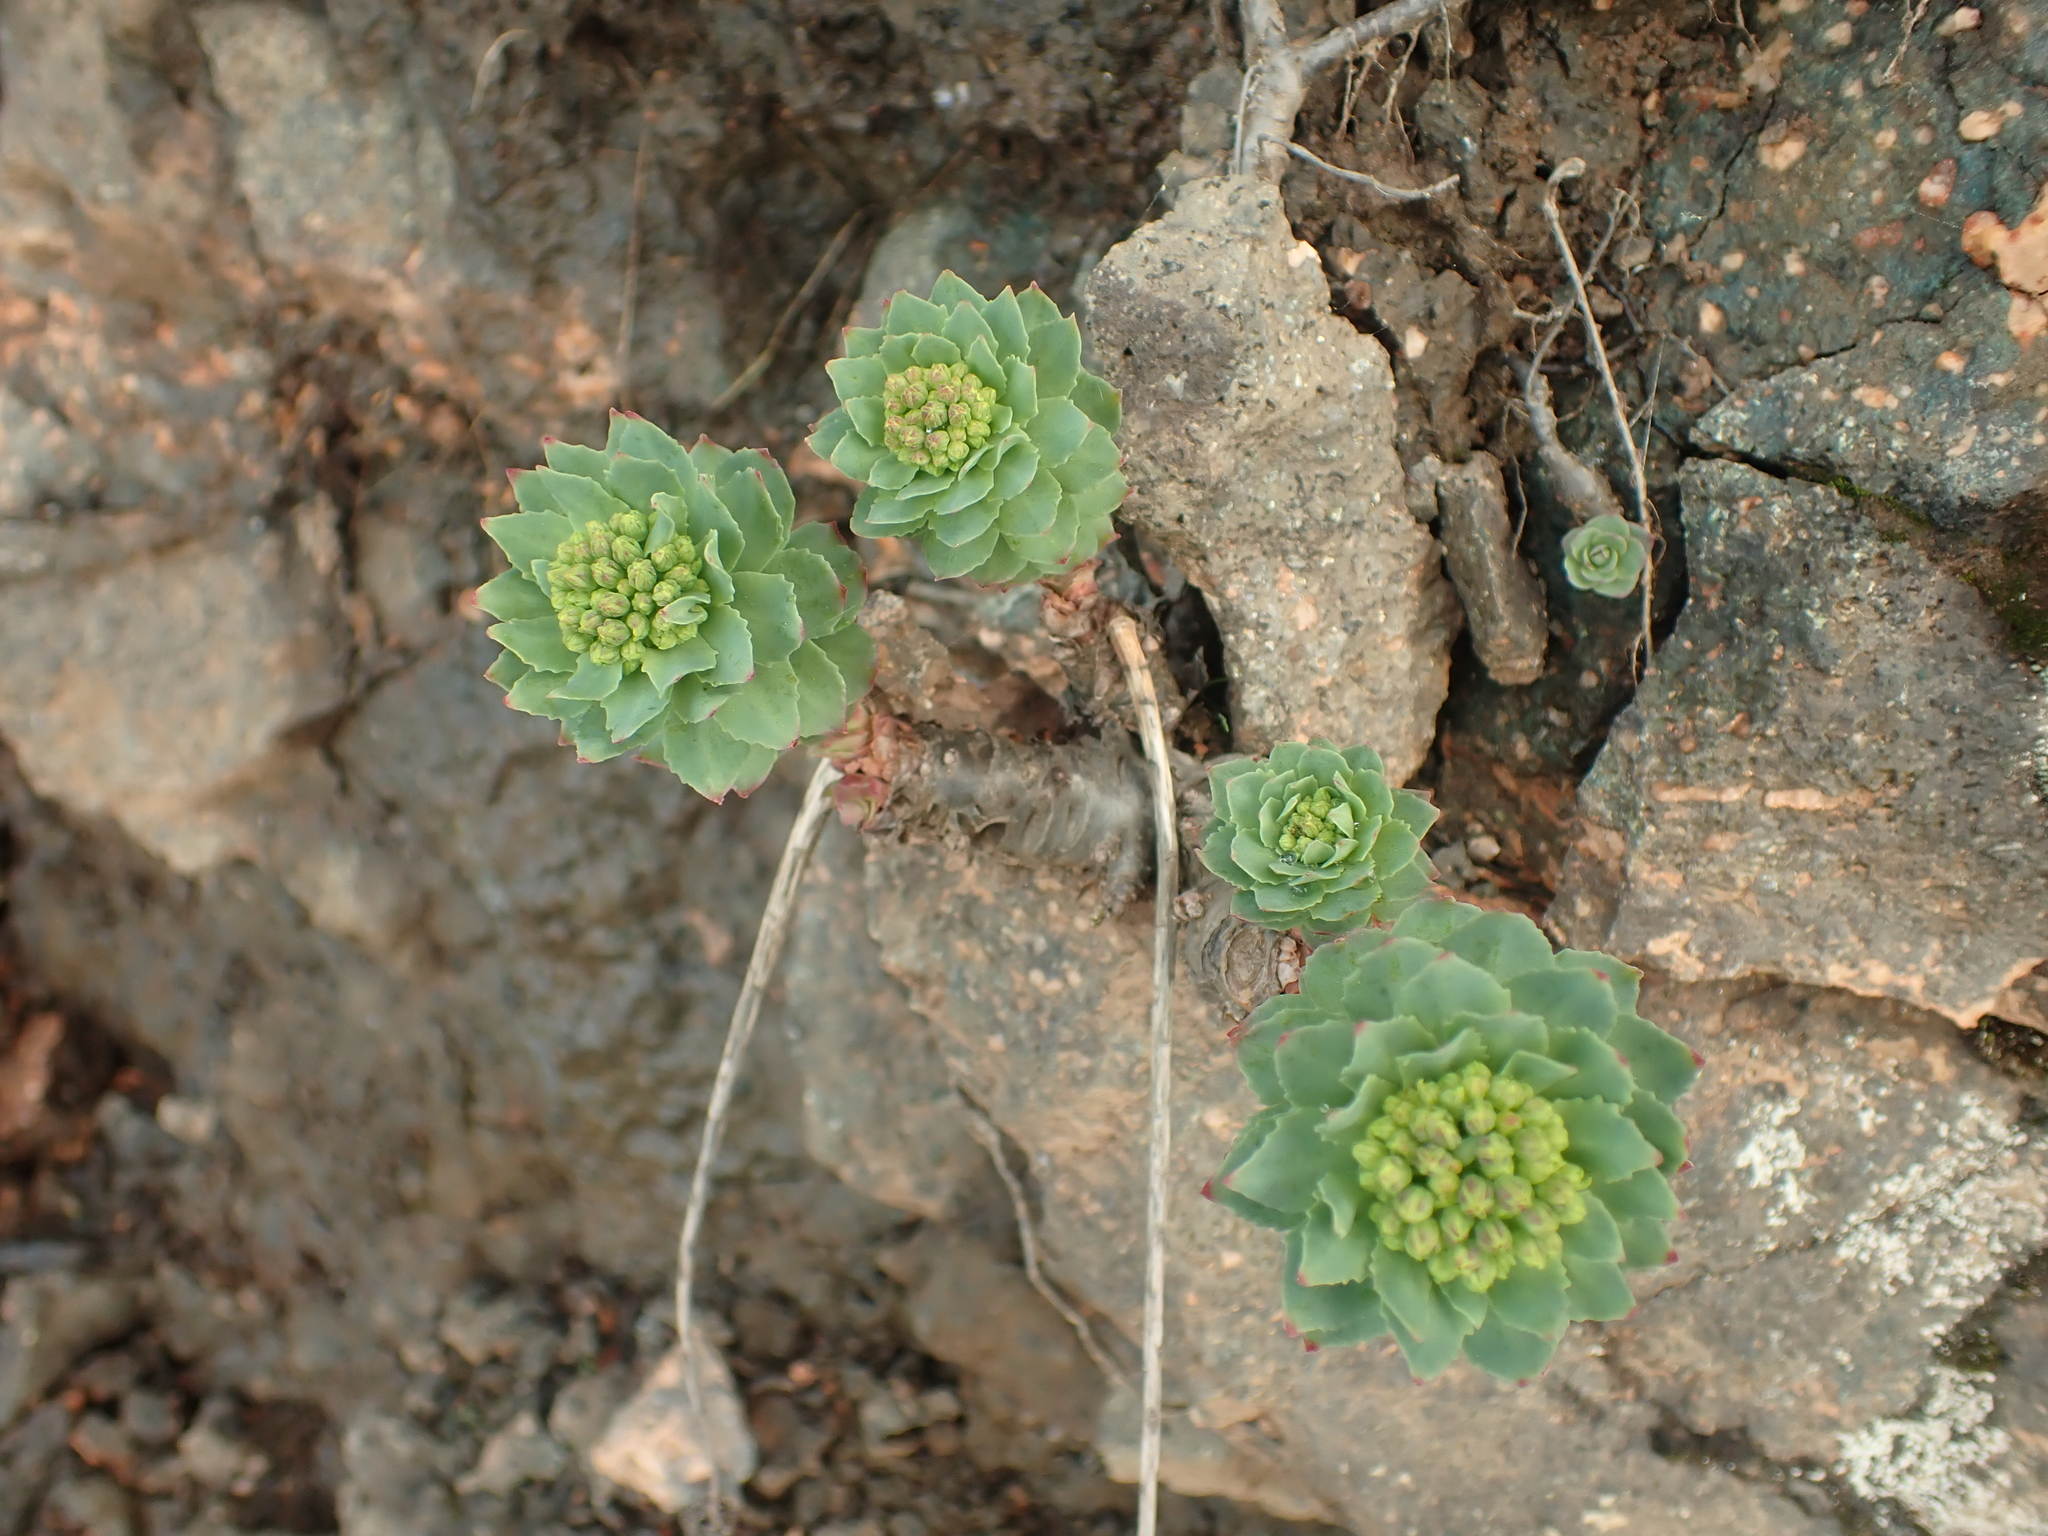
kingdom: Plantae
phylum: Tracheophyta
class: Magnoliopsida
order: Saxifragales
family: Crassulaceae
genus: Rhodiola
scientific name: Rhodiola rosea
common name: Roseroot
